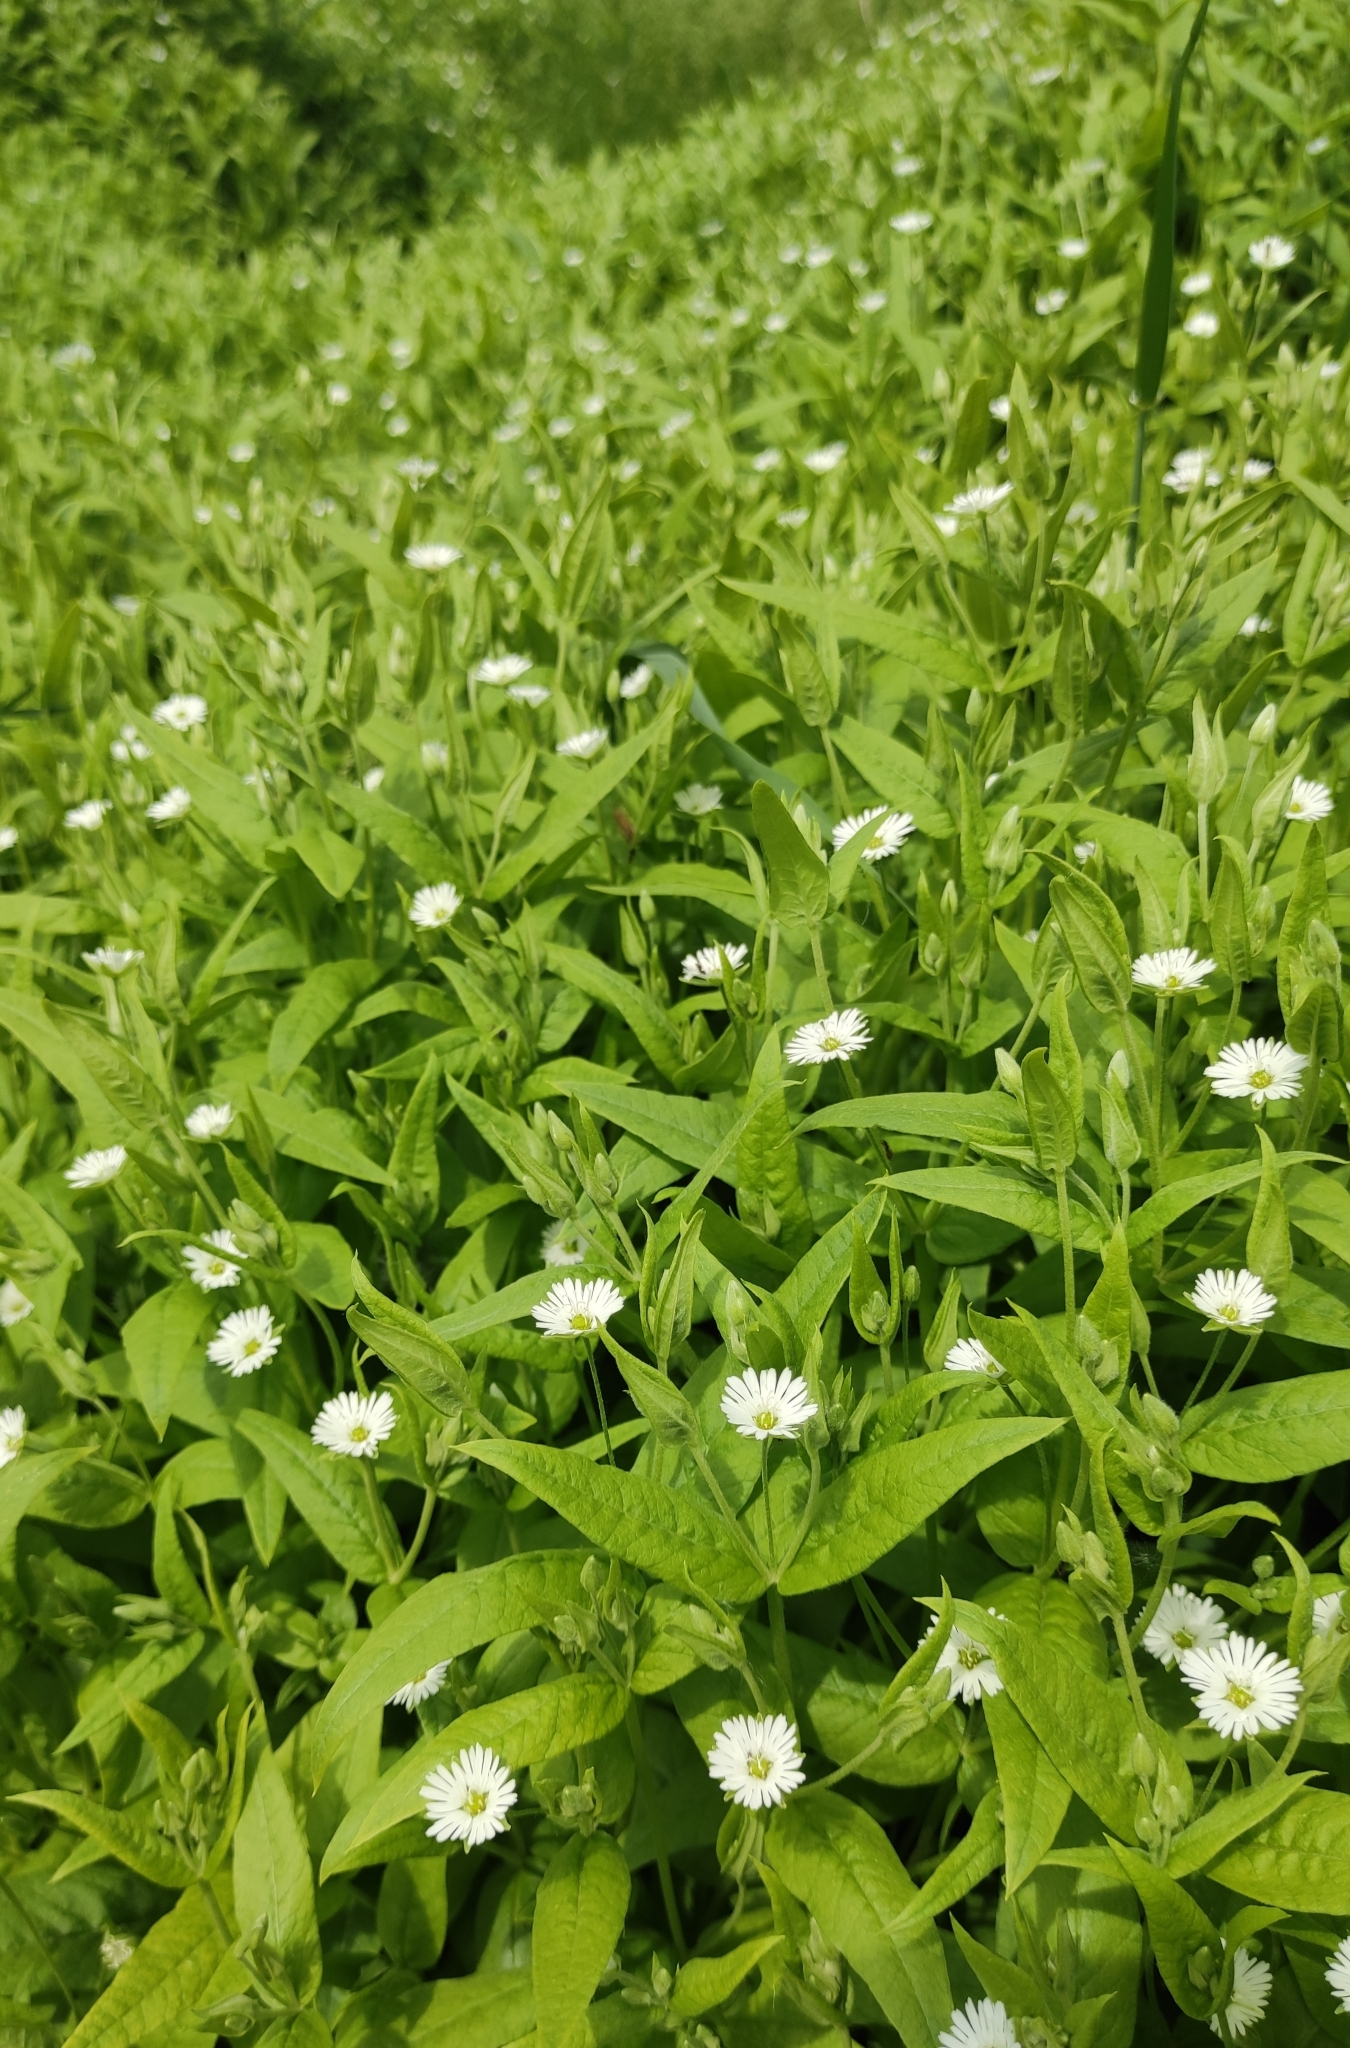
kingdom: Plantae
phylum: Tracheophyta
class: Magnoliopsida
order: Caryophyllales
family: Caryophyllaceae
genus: Stellaria
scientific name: Stellaria radians
